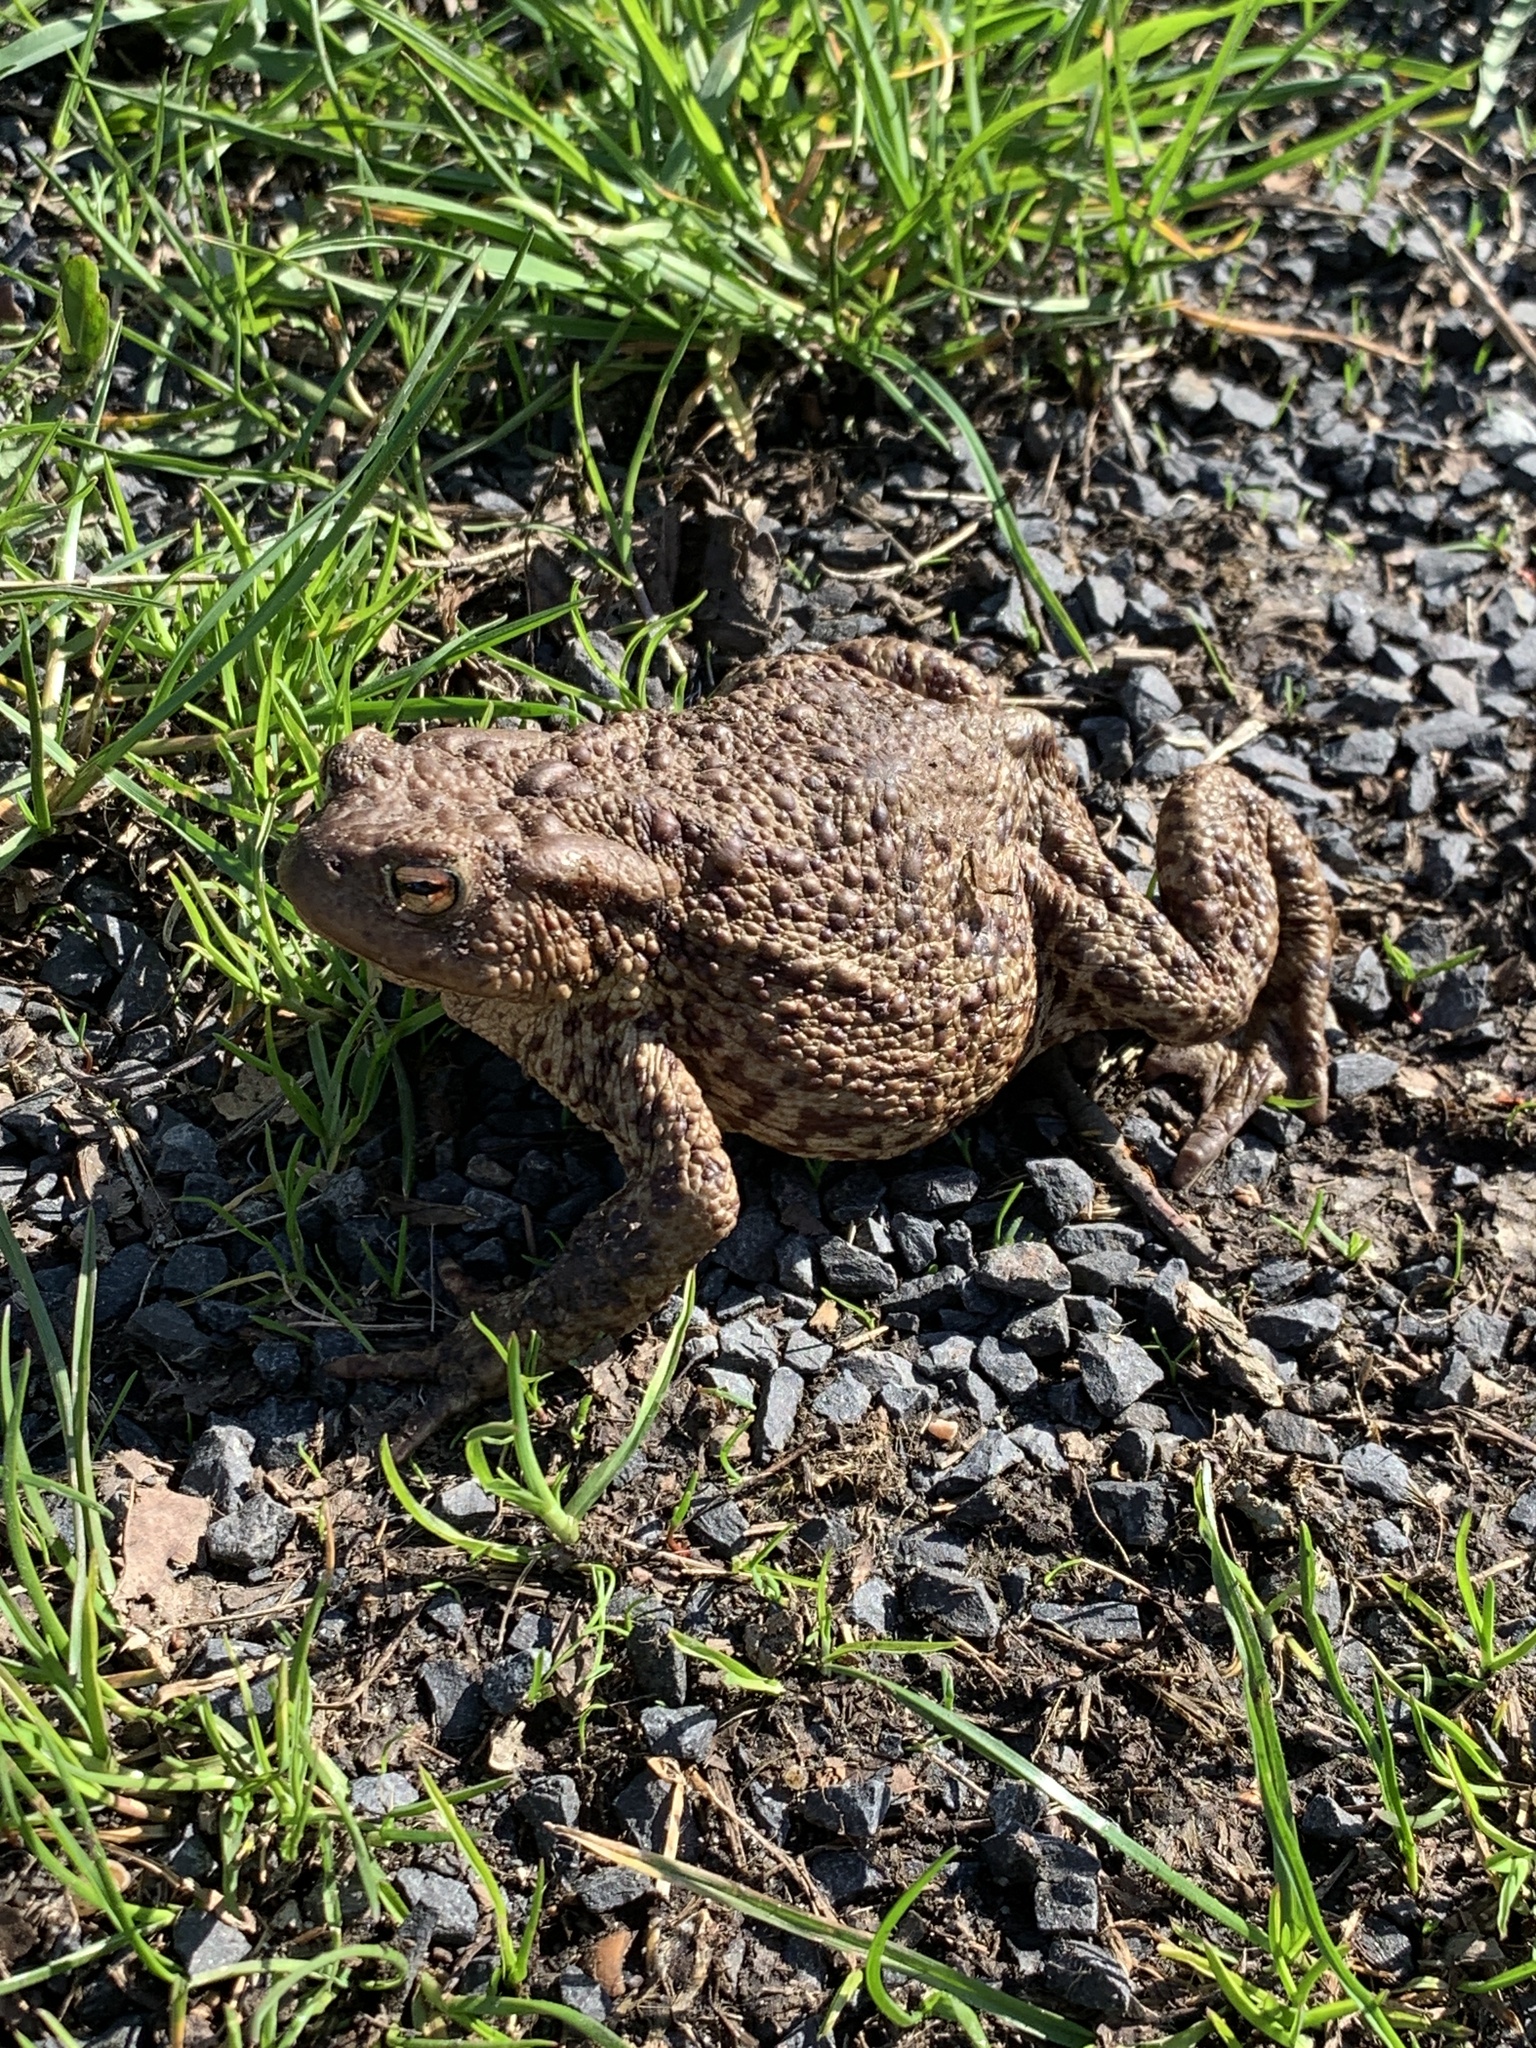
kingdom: Animalia
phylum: Chordata
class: Amphibia
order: Anura
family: Bufonidae
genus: Bufo
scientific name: Bufo bufo
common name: Common toad
